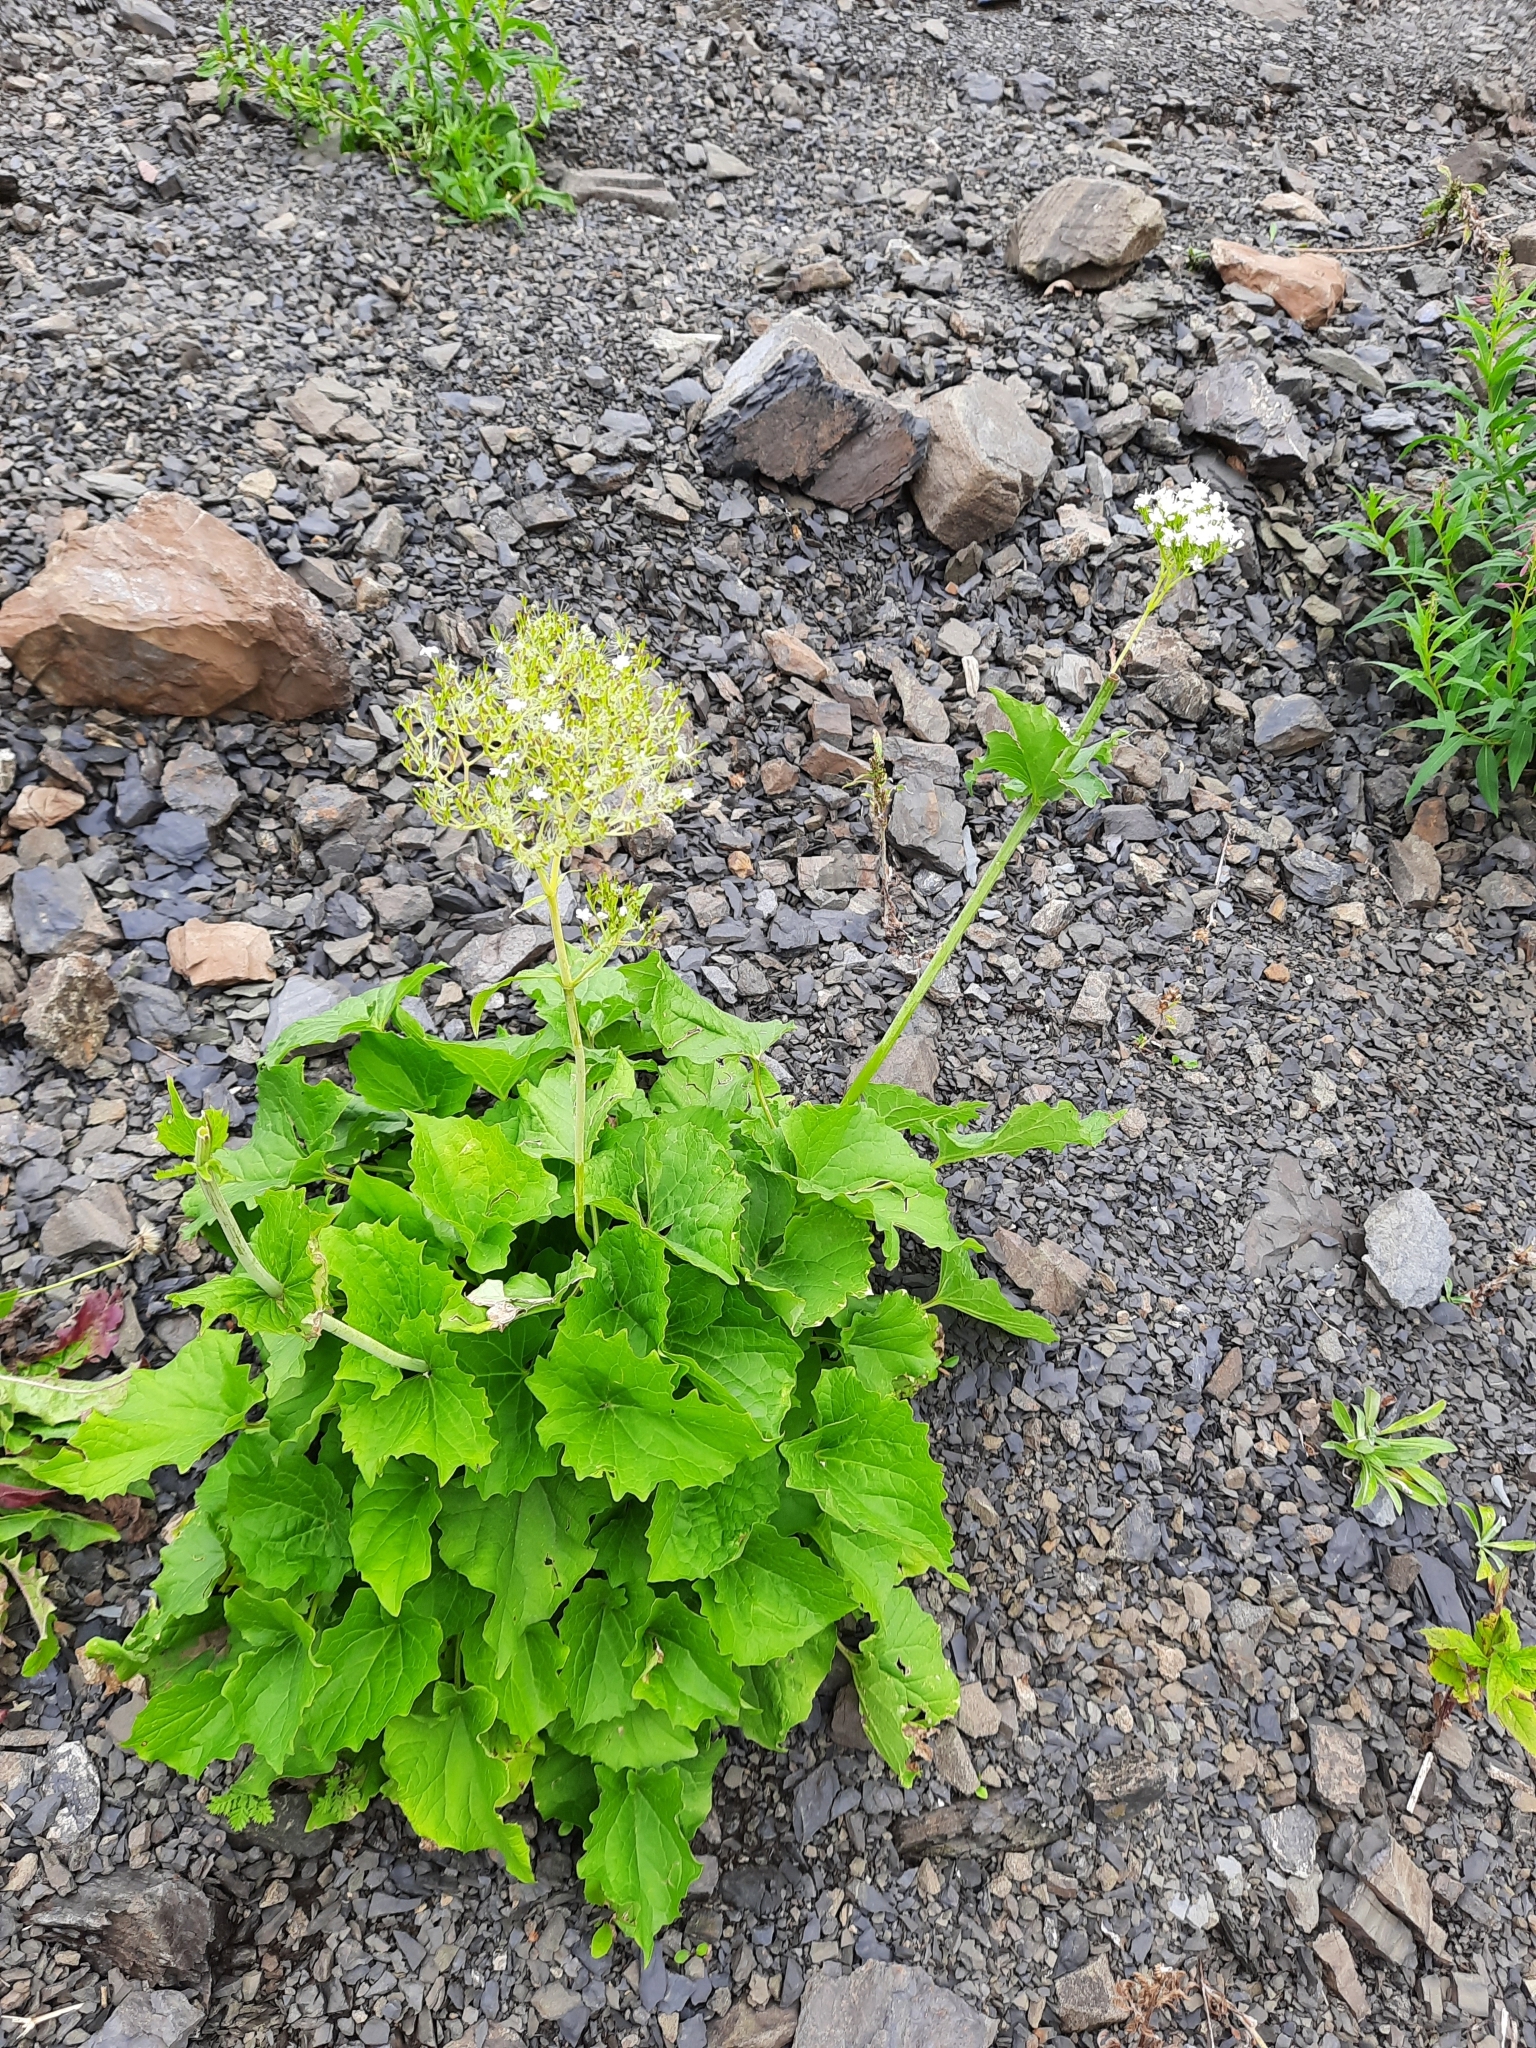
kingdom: Plantae
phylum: Tracheophyta
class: Magnoliopsida
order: Dipsacales
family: Caprifoliaceae
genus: Valeriana
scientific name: Valeriana alliariifolia
